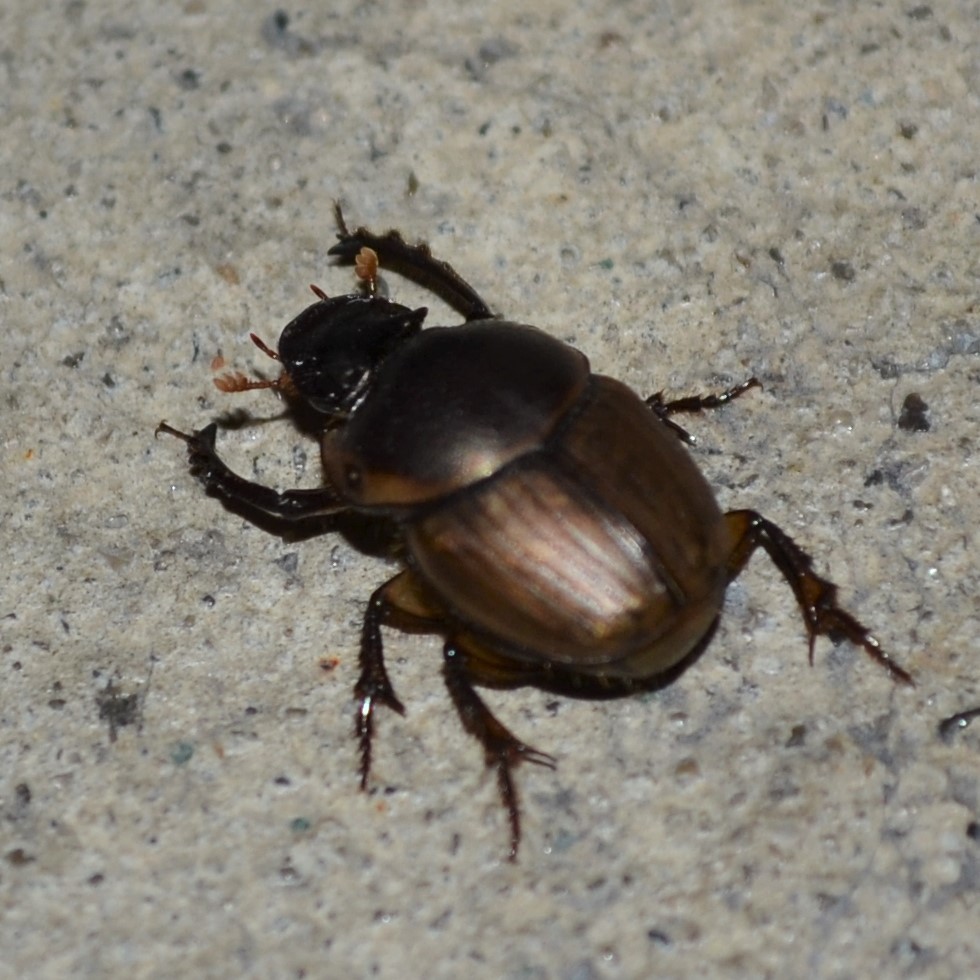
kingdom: Animalia
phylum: Arthropoda
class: Insecta
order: Coleoptera
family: Scarabaeidae
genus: Digitonthophagus
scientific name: Digitonthophagus gazella
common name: Brown dung beetle
